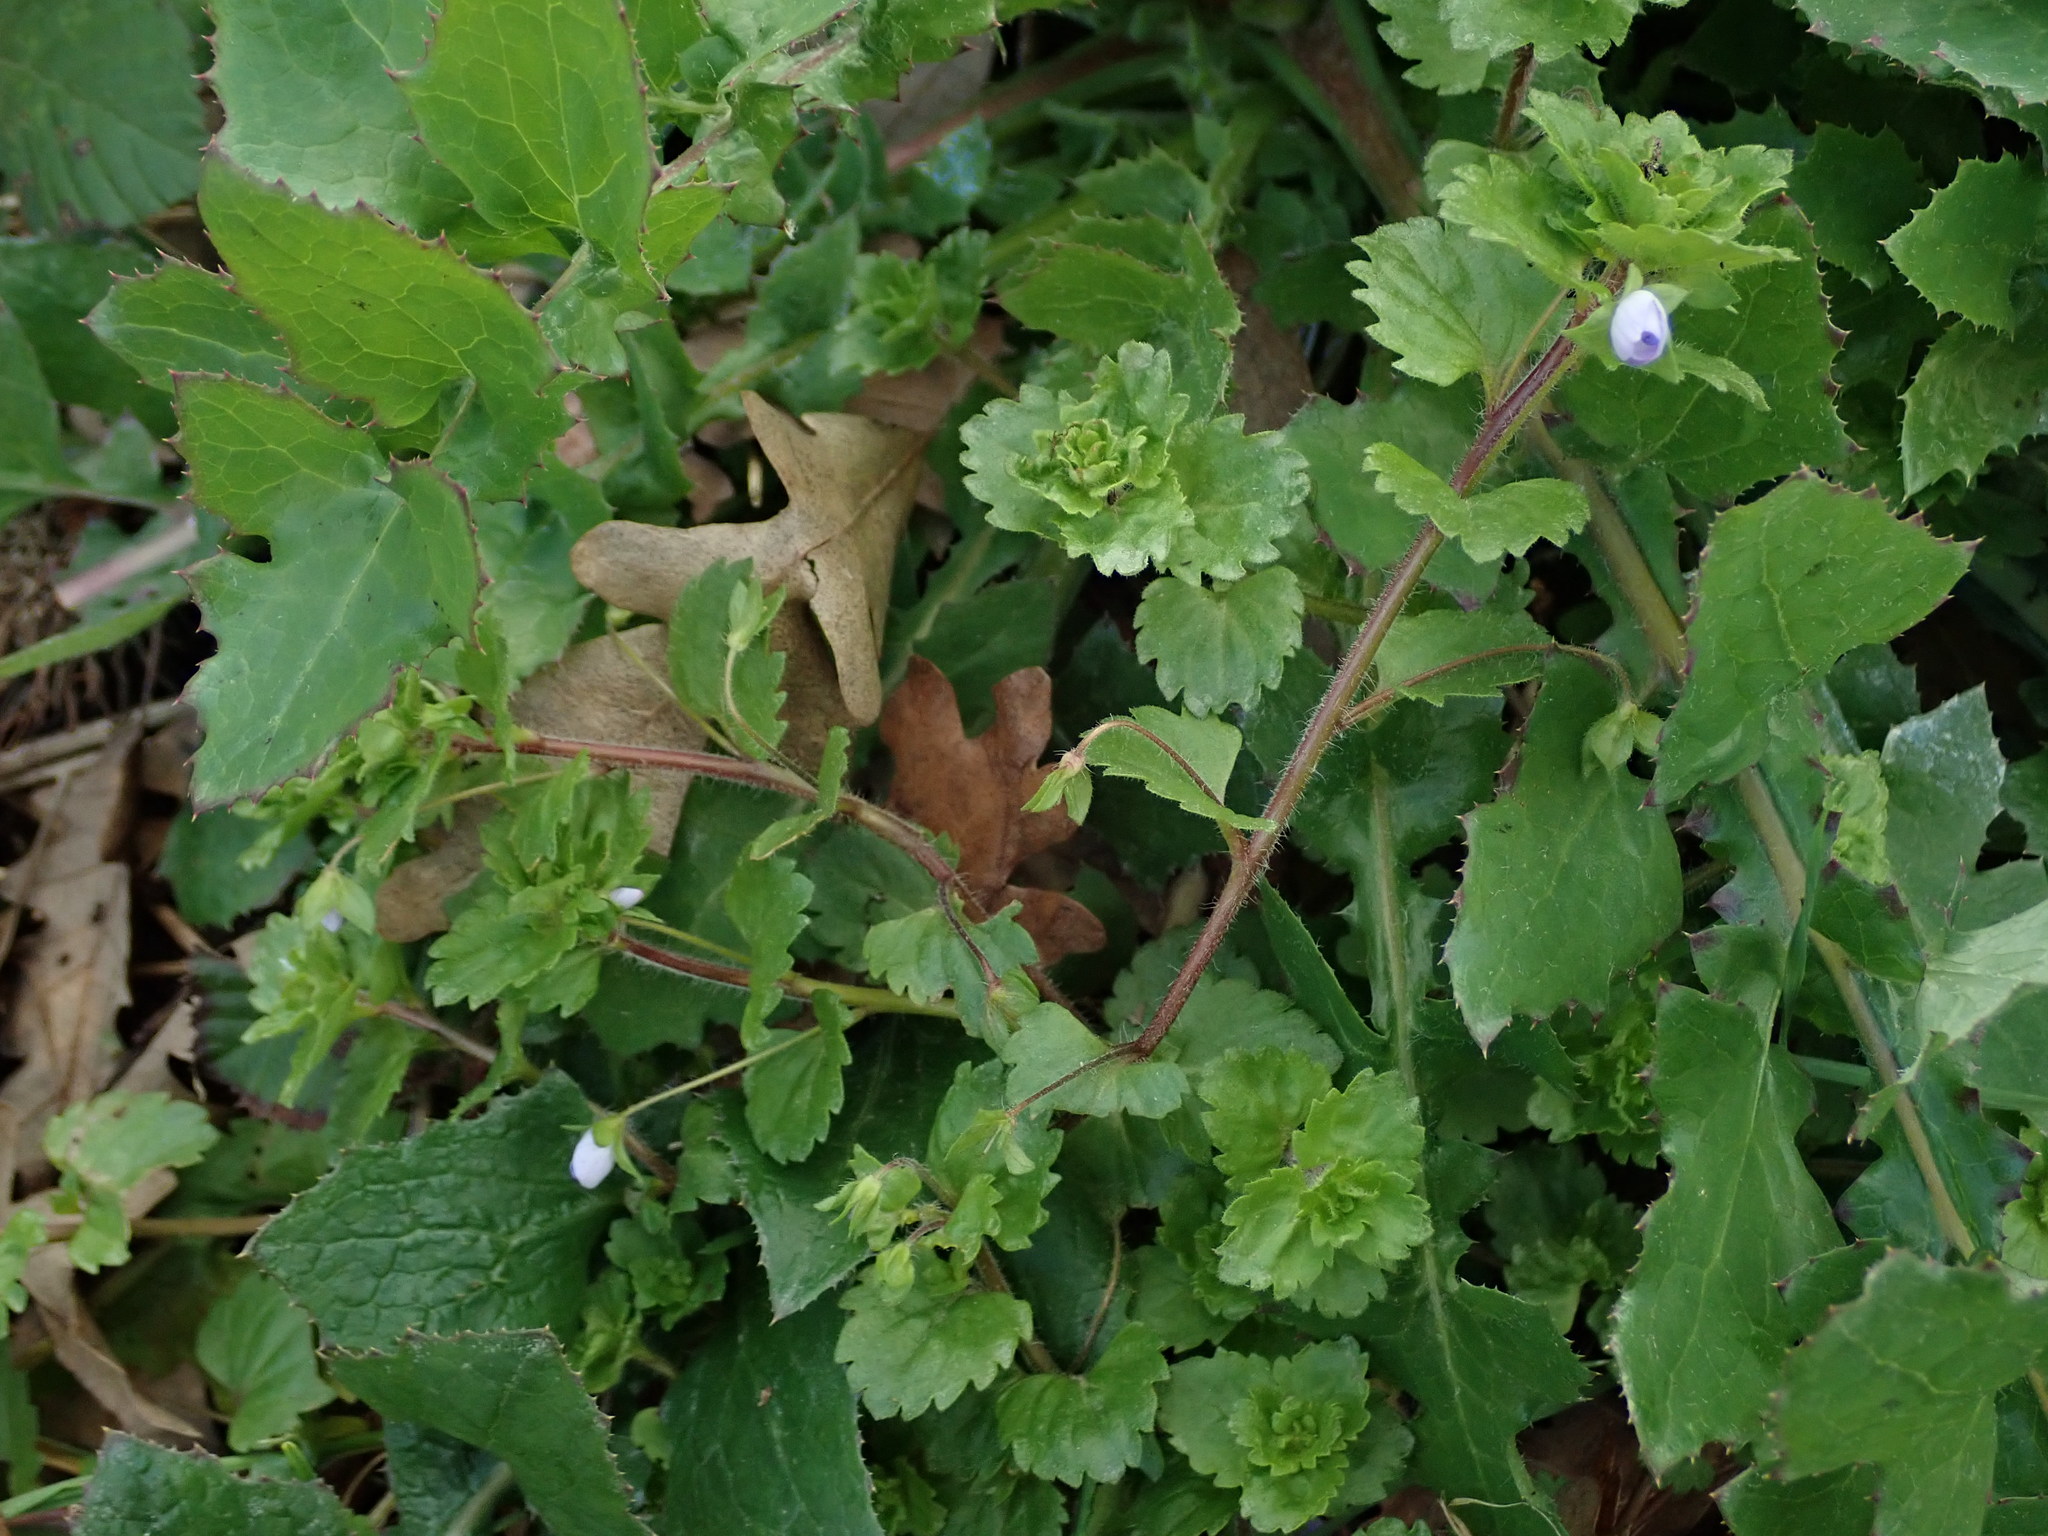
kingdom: Plantae
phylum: Tracheophyta
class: Magnoliopsida
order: Lamiales
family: Plantaginaceae
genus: Veronica
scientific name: Veronica persica
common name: Common field-speedwell
